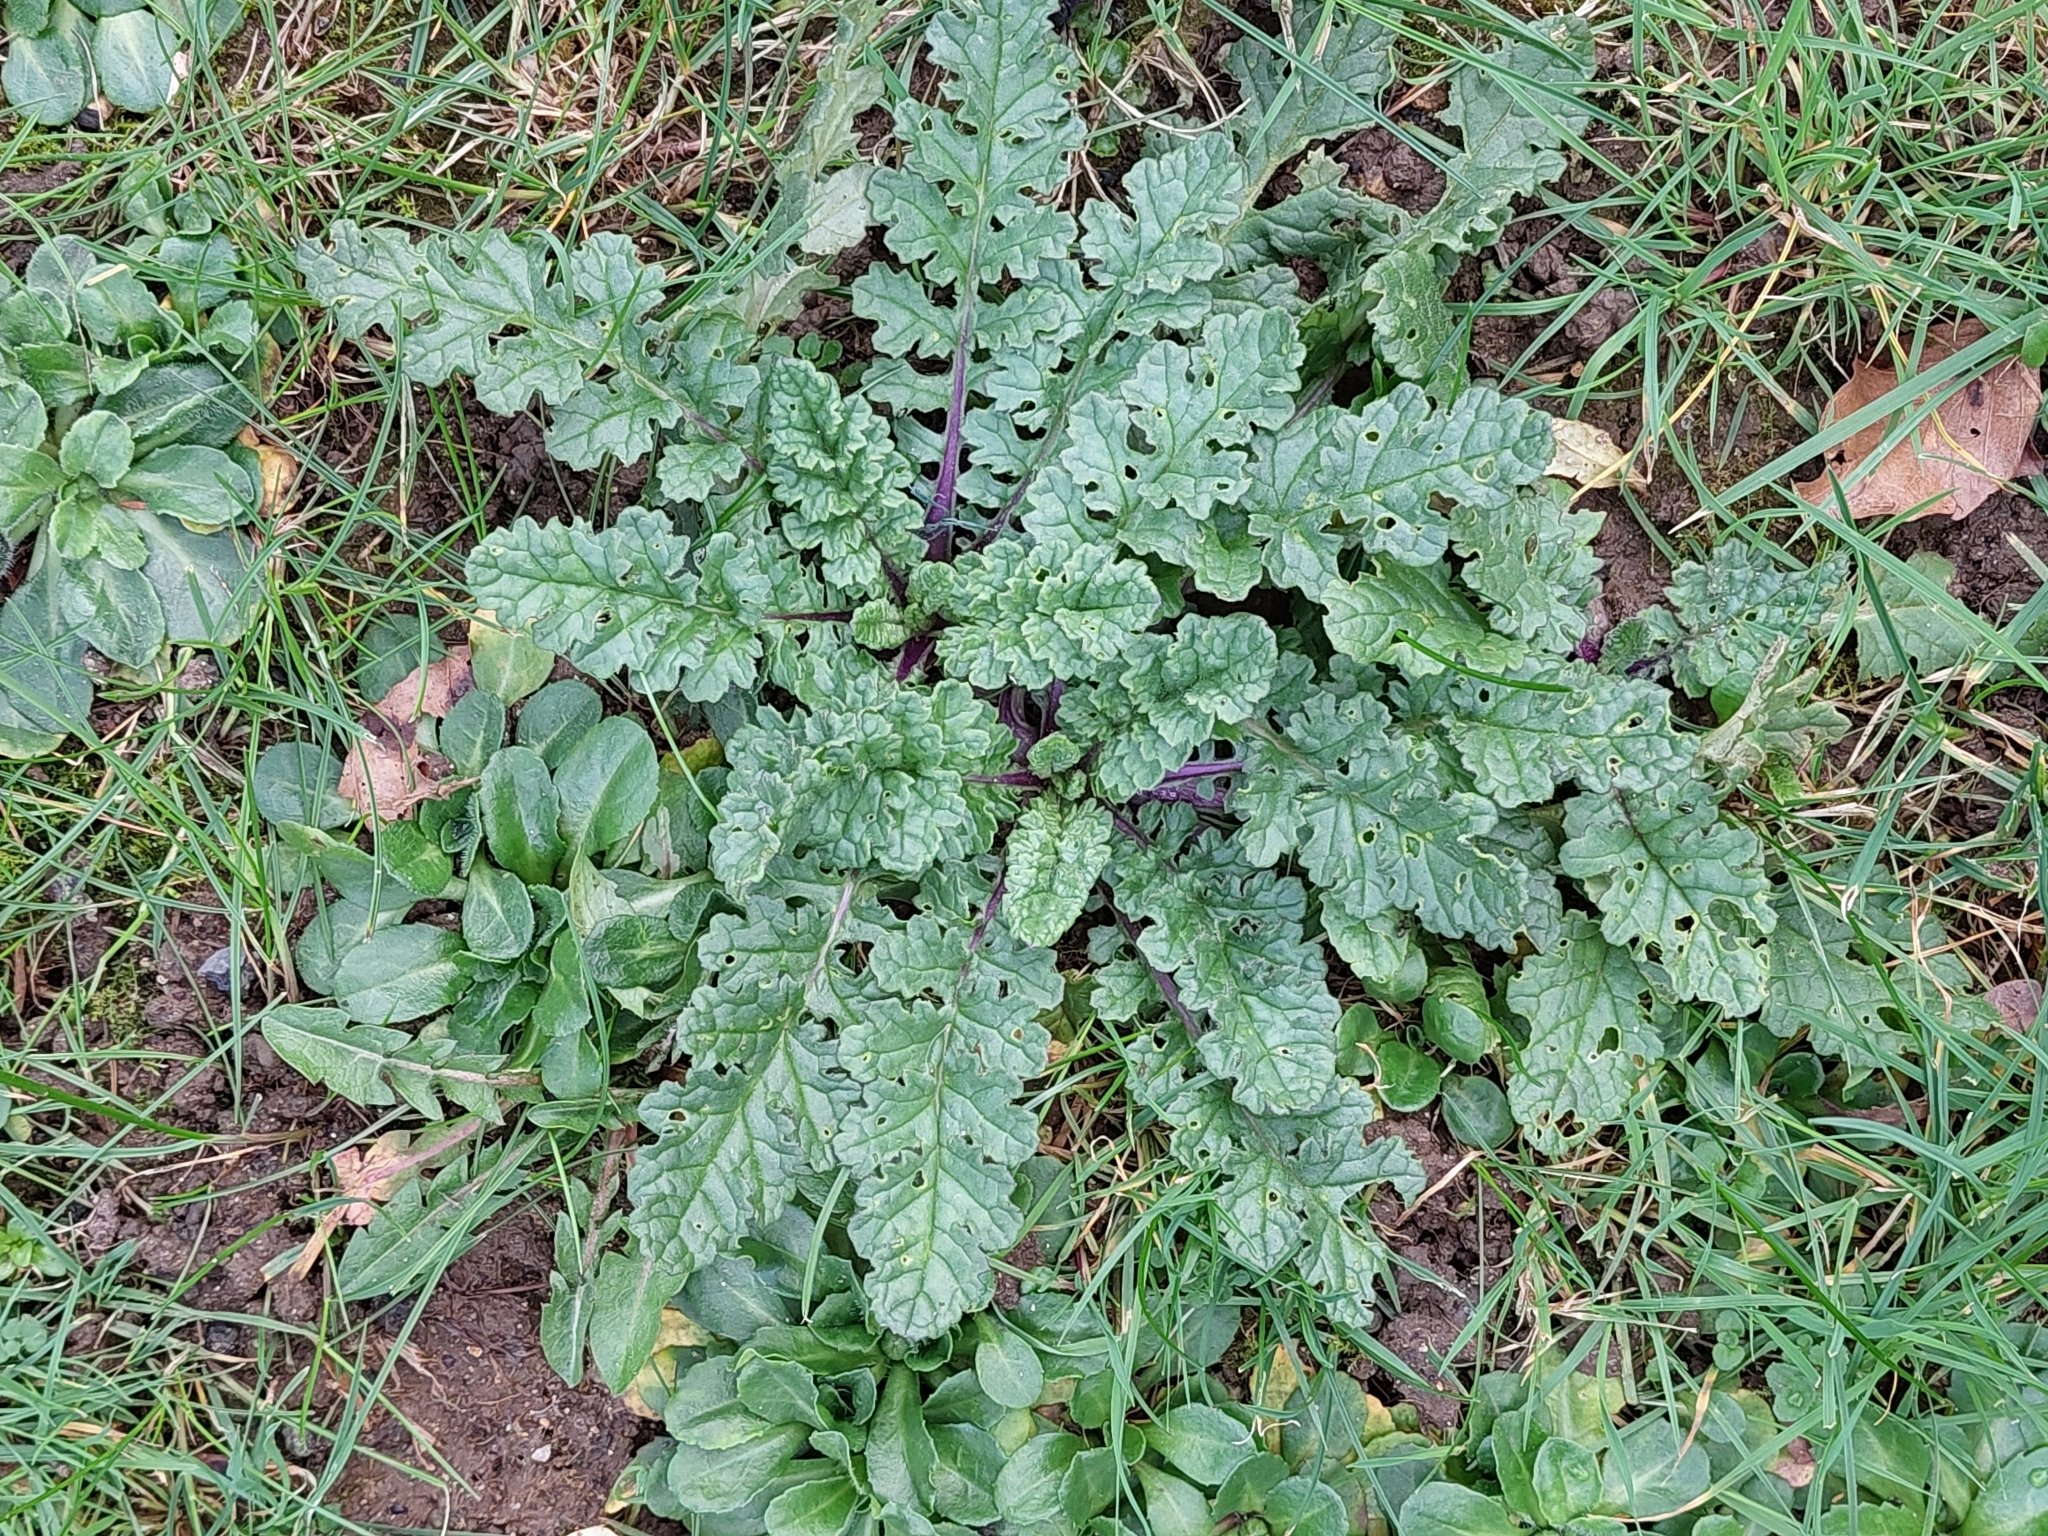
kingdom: Plantae
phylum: Tracheophyta
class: Magnoliopsida
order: Asterales
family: Asteraceae
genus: Jacobaea
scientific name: Jacobaea vulgaris
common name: Stinking willie
